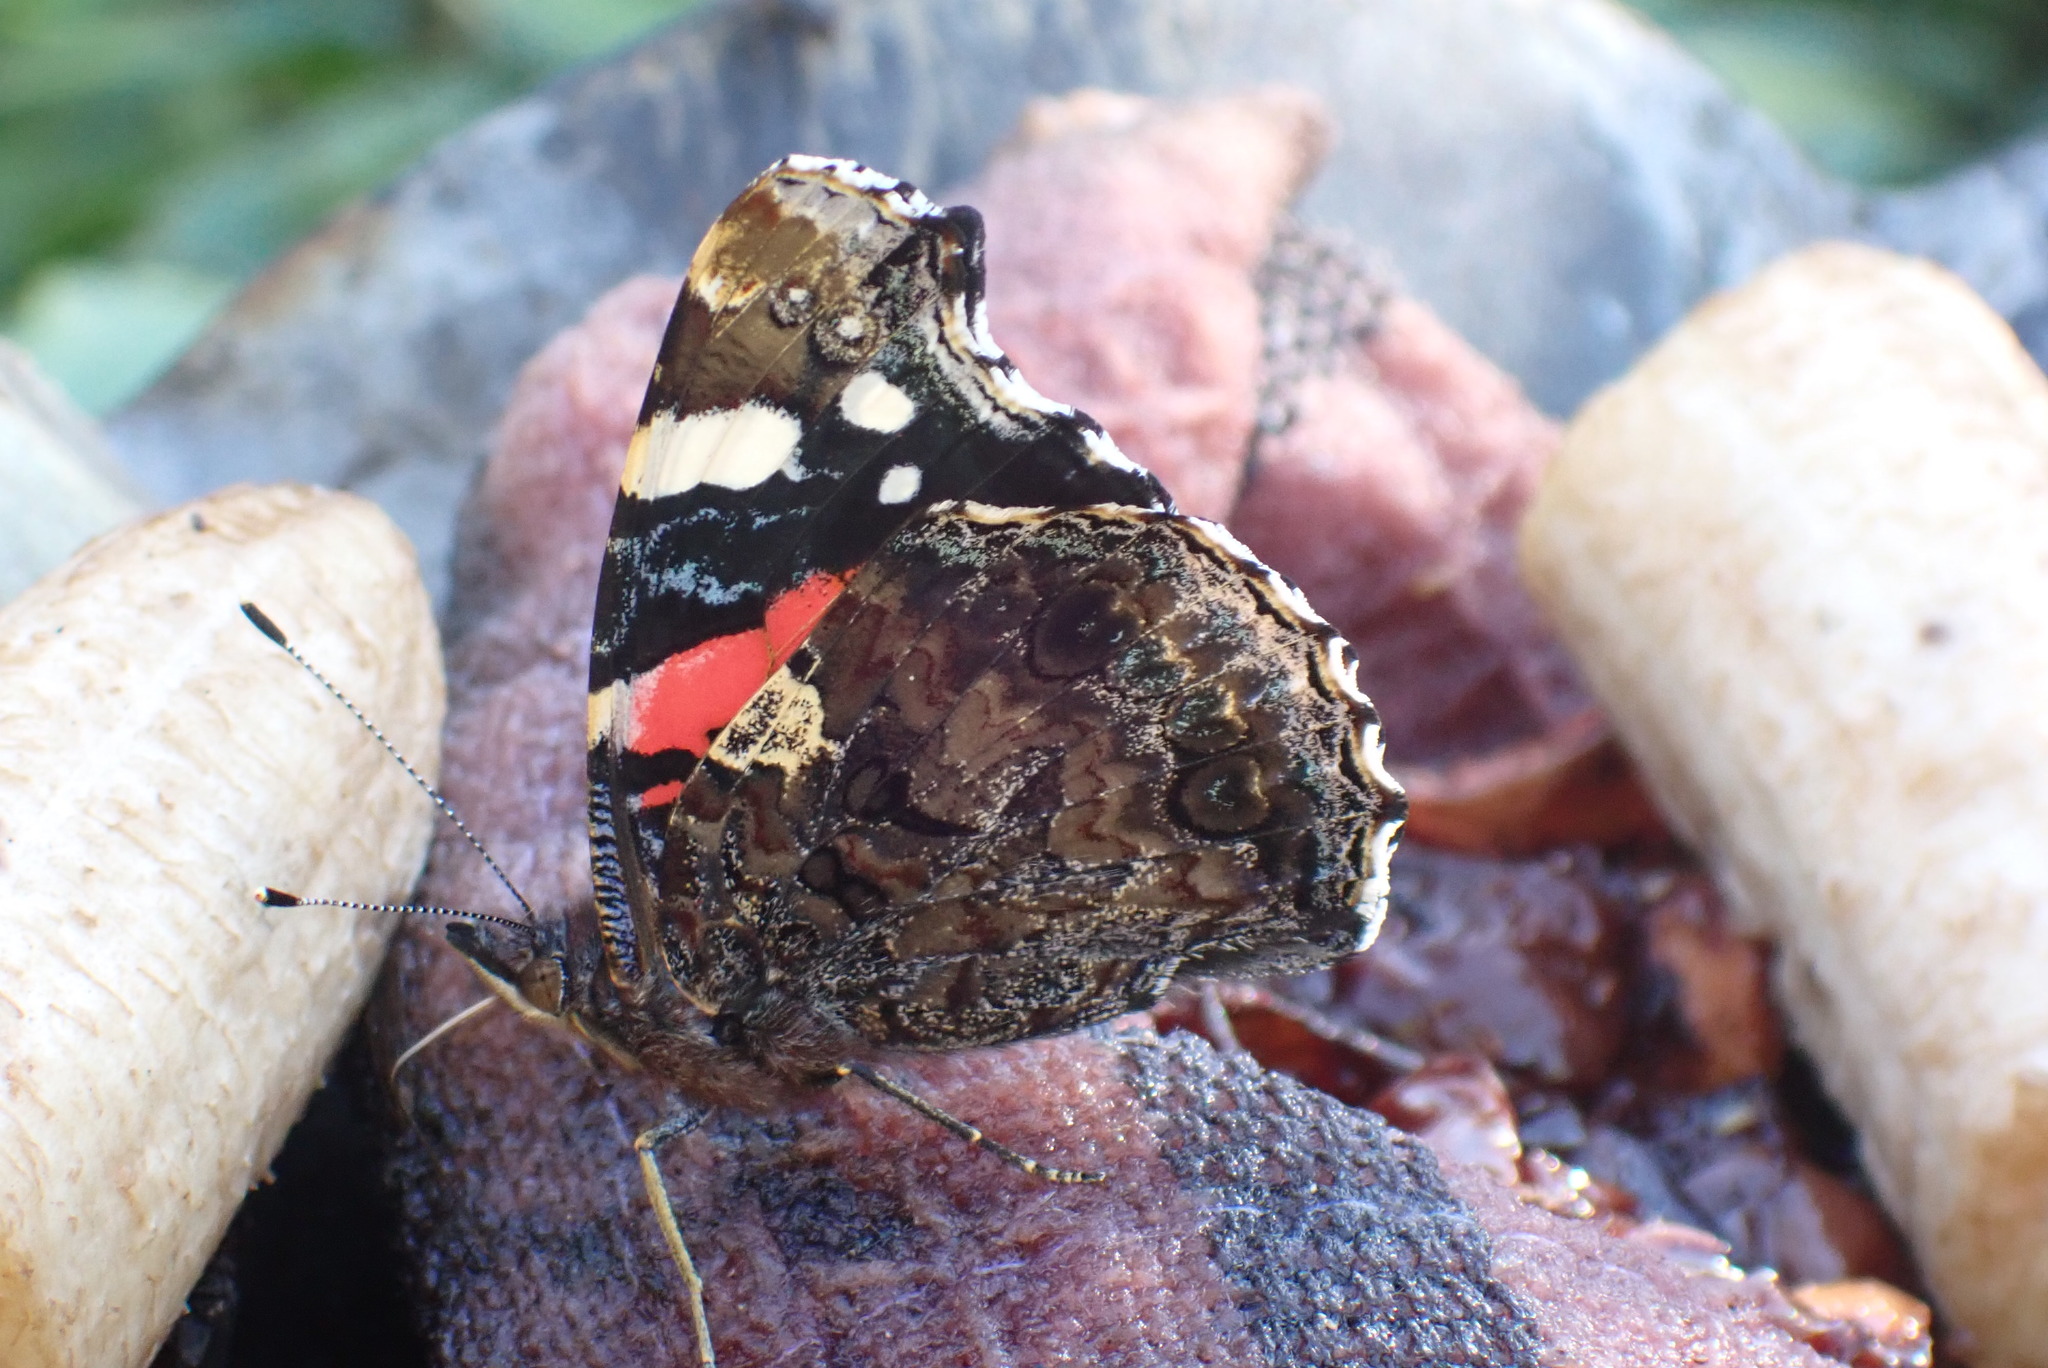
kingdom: Animalia
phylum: Arthropoda
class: Insecta
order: Lepidoptera
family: Nymphalidae
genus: Vanessa
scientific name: Vanessa atalanta
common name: Red admiral
